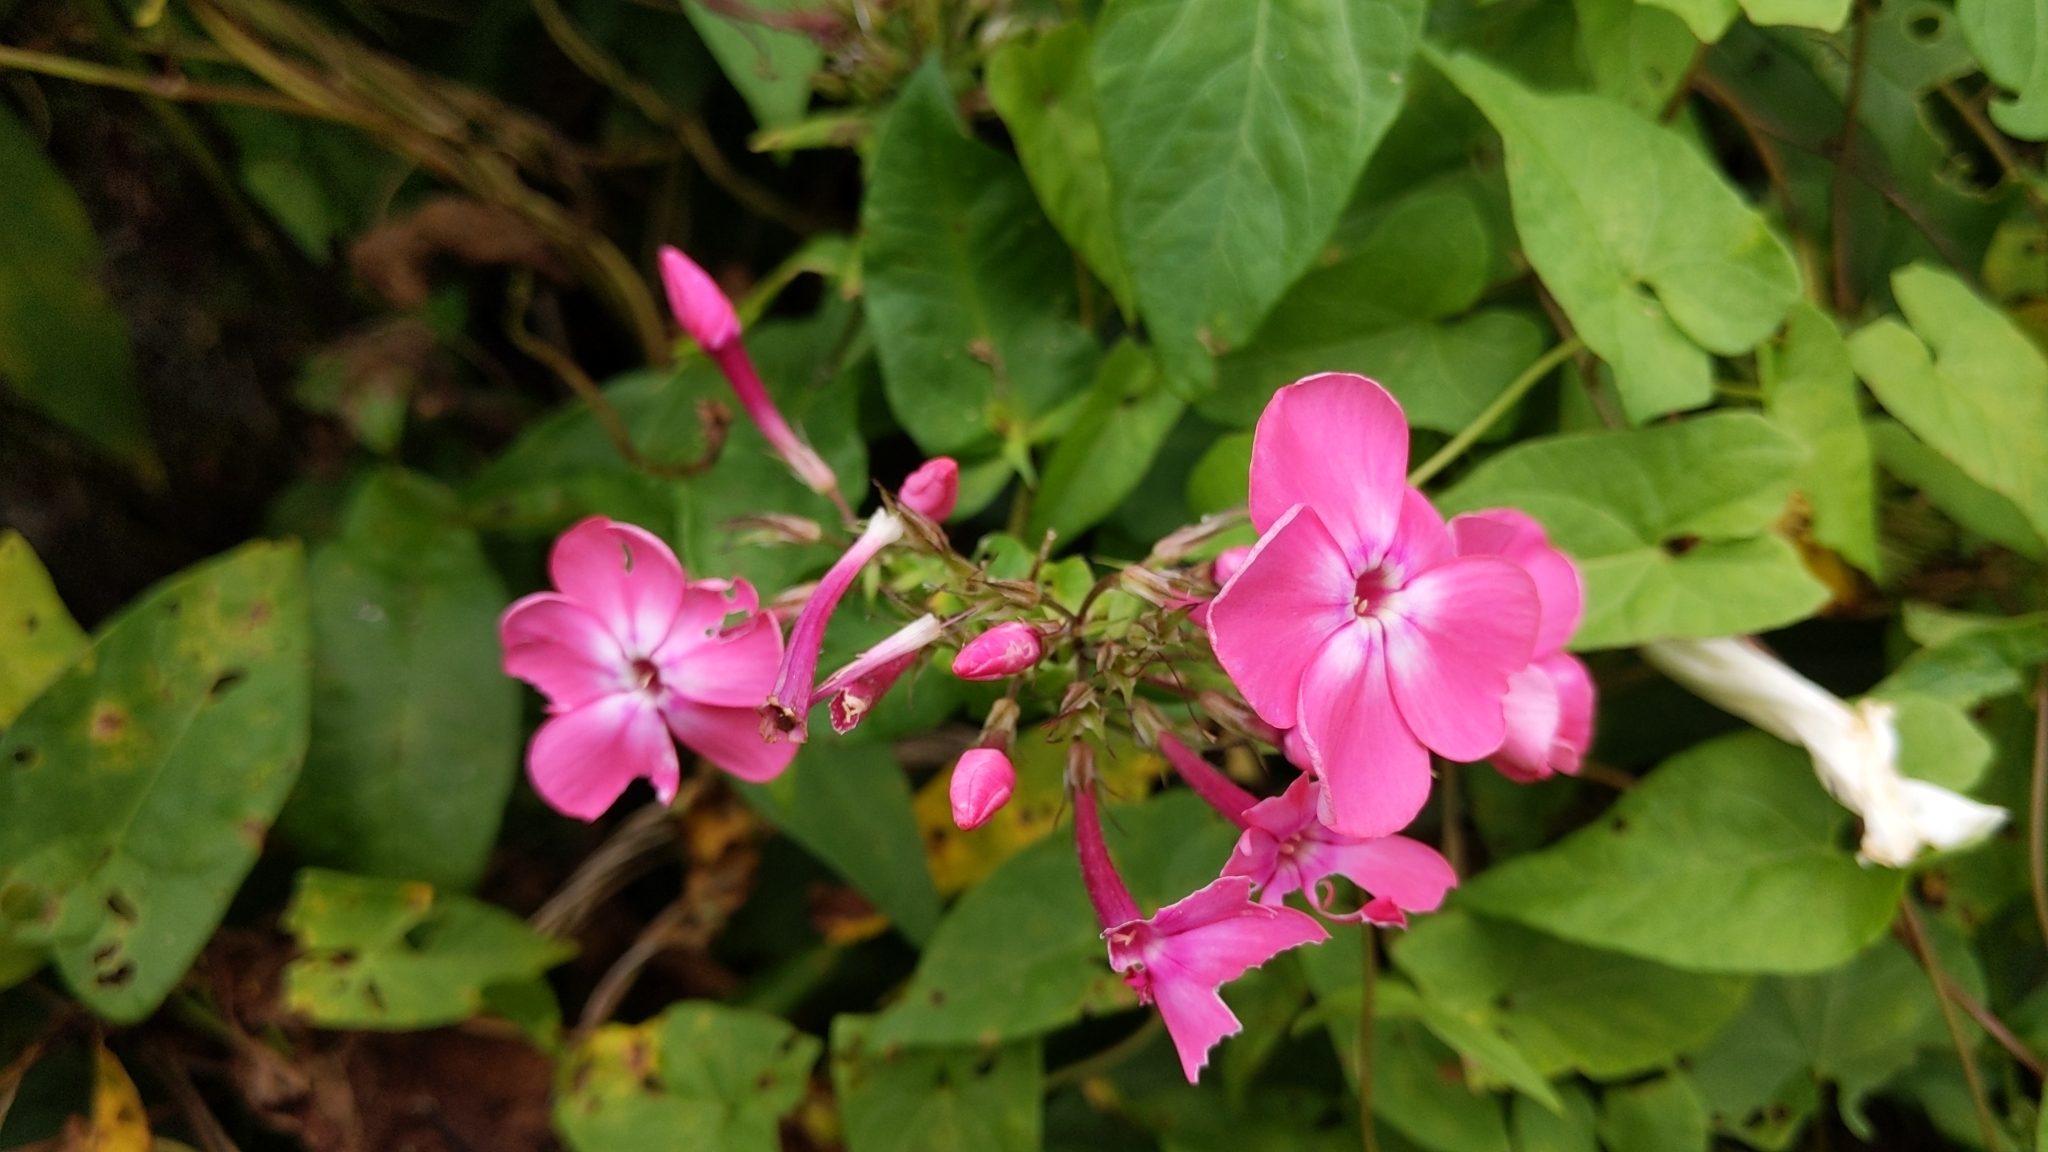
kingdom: Plantae
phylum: Tracheophyta
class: Magnoliopsida
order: Ericales
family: Polemoniaceae
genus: Phlox
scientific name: Phlox paniculata
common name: Fall phlox
